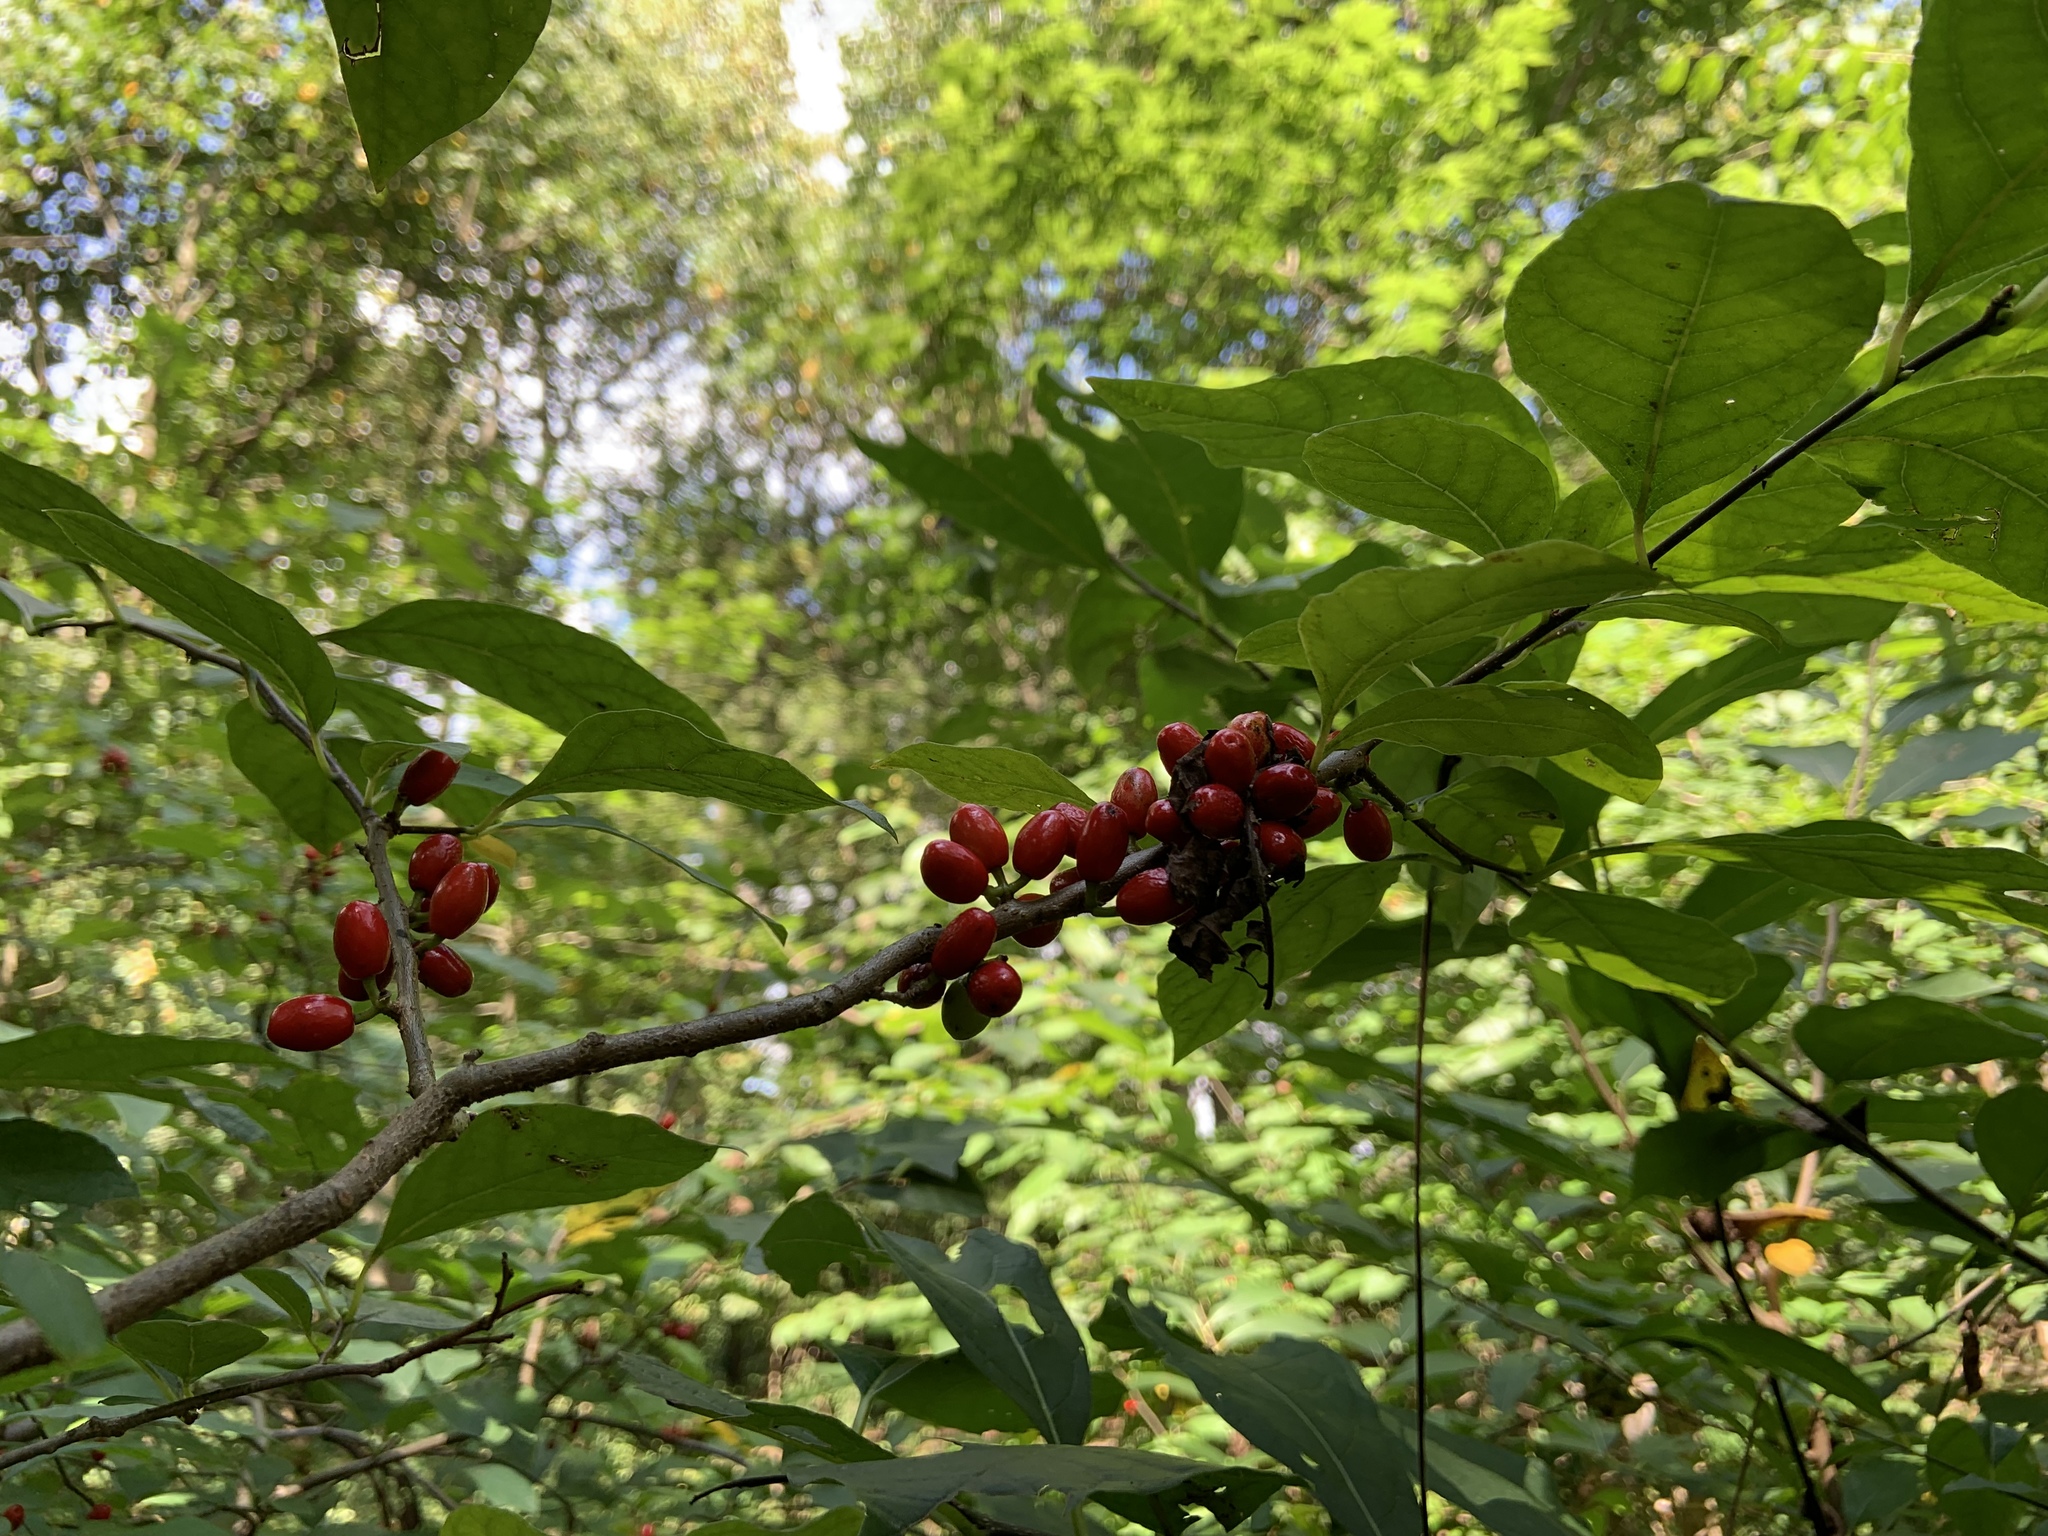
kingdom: Plantae
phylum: Tracheophyta
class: Magnoliopsida
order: Laurales
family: Lauraceae
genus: Lindera
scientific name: Lindera benzoin
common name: Spicebush
